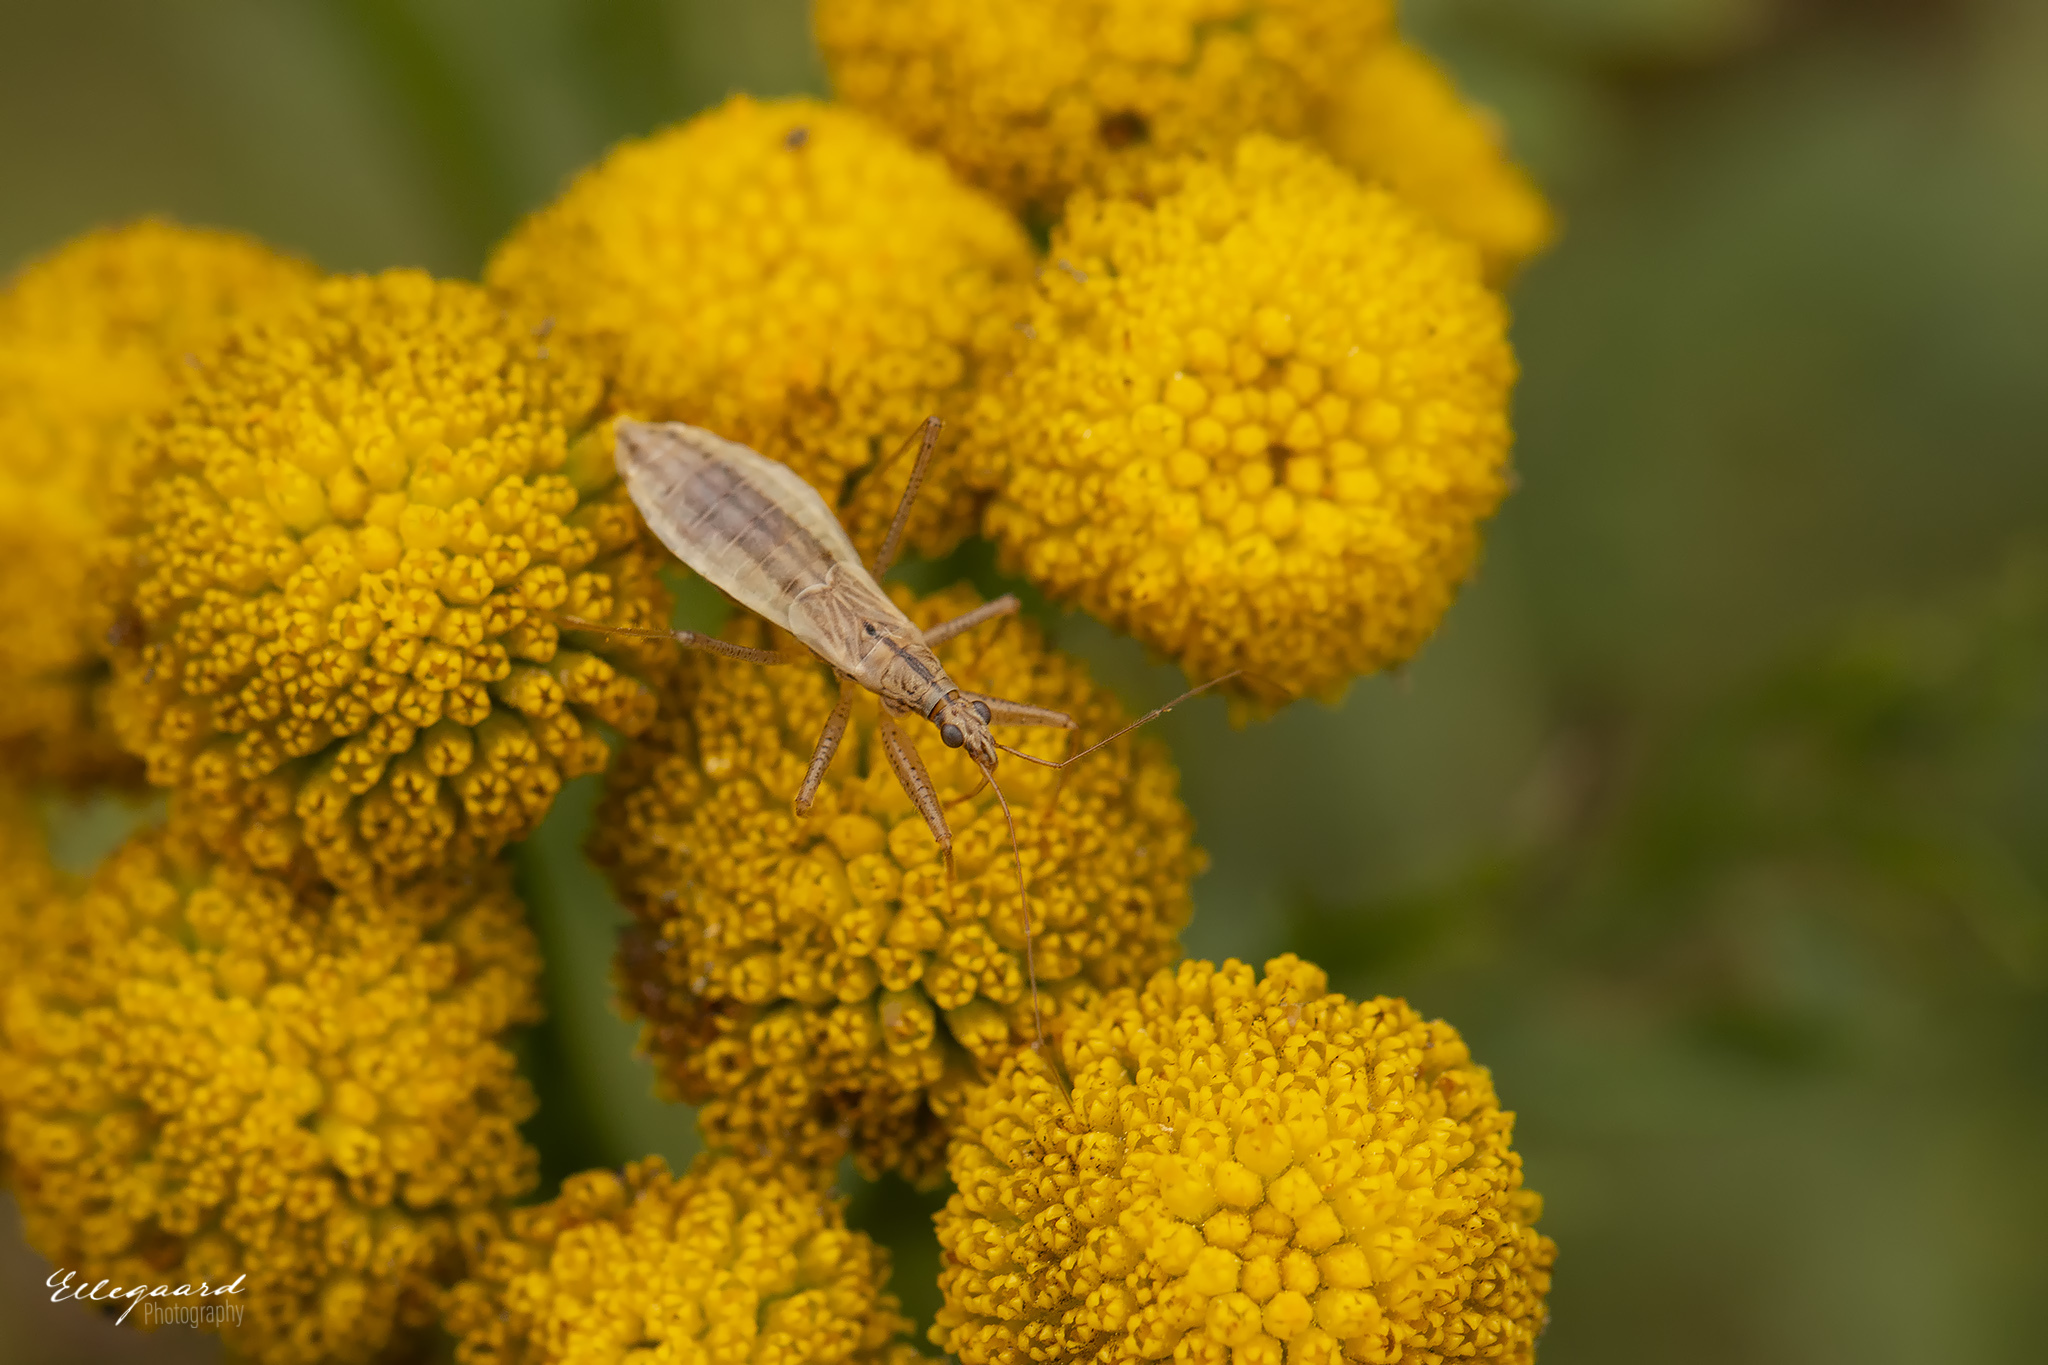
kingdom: Animalia
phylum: Arthropoda
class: Insecta
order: Hemiptera
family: Nabidae
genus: Nabis
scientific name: Nabis limbatus
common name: Marsh damselbug
